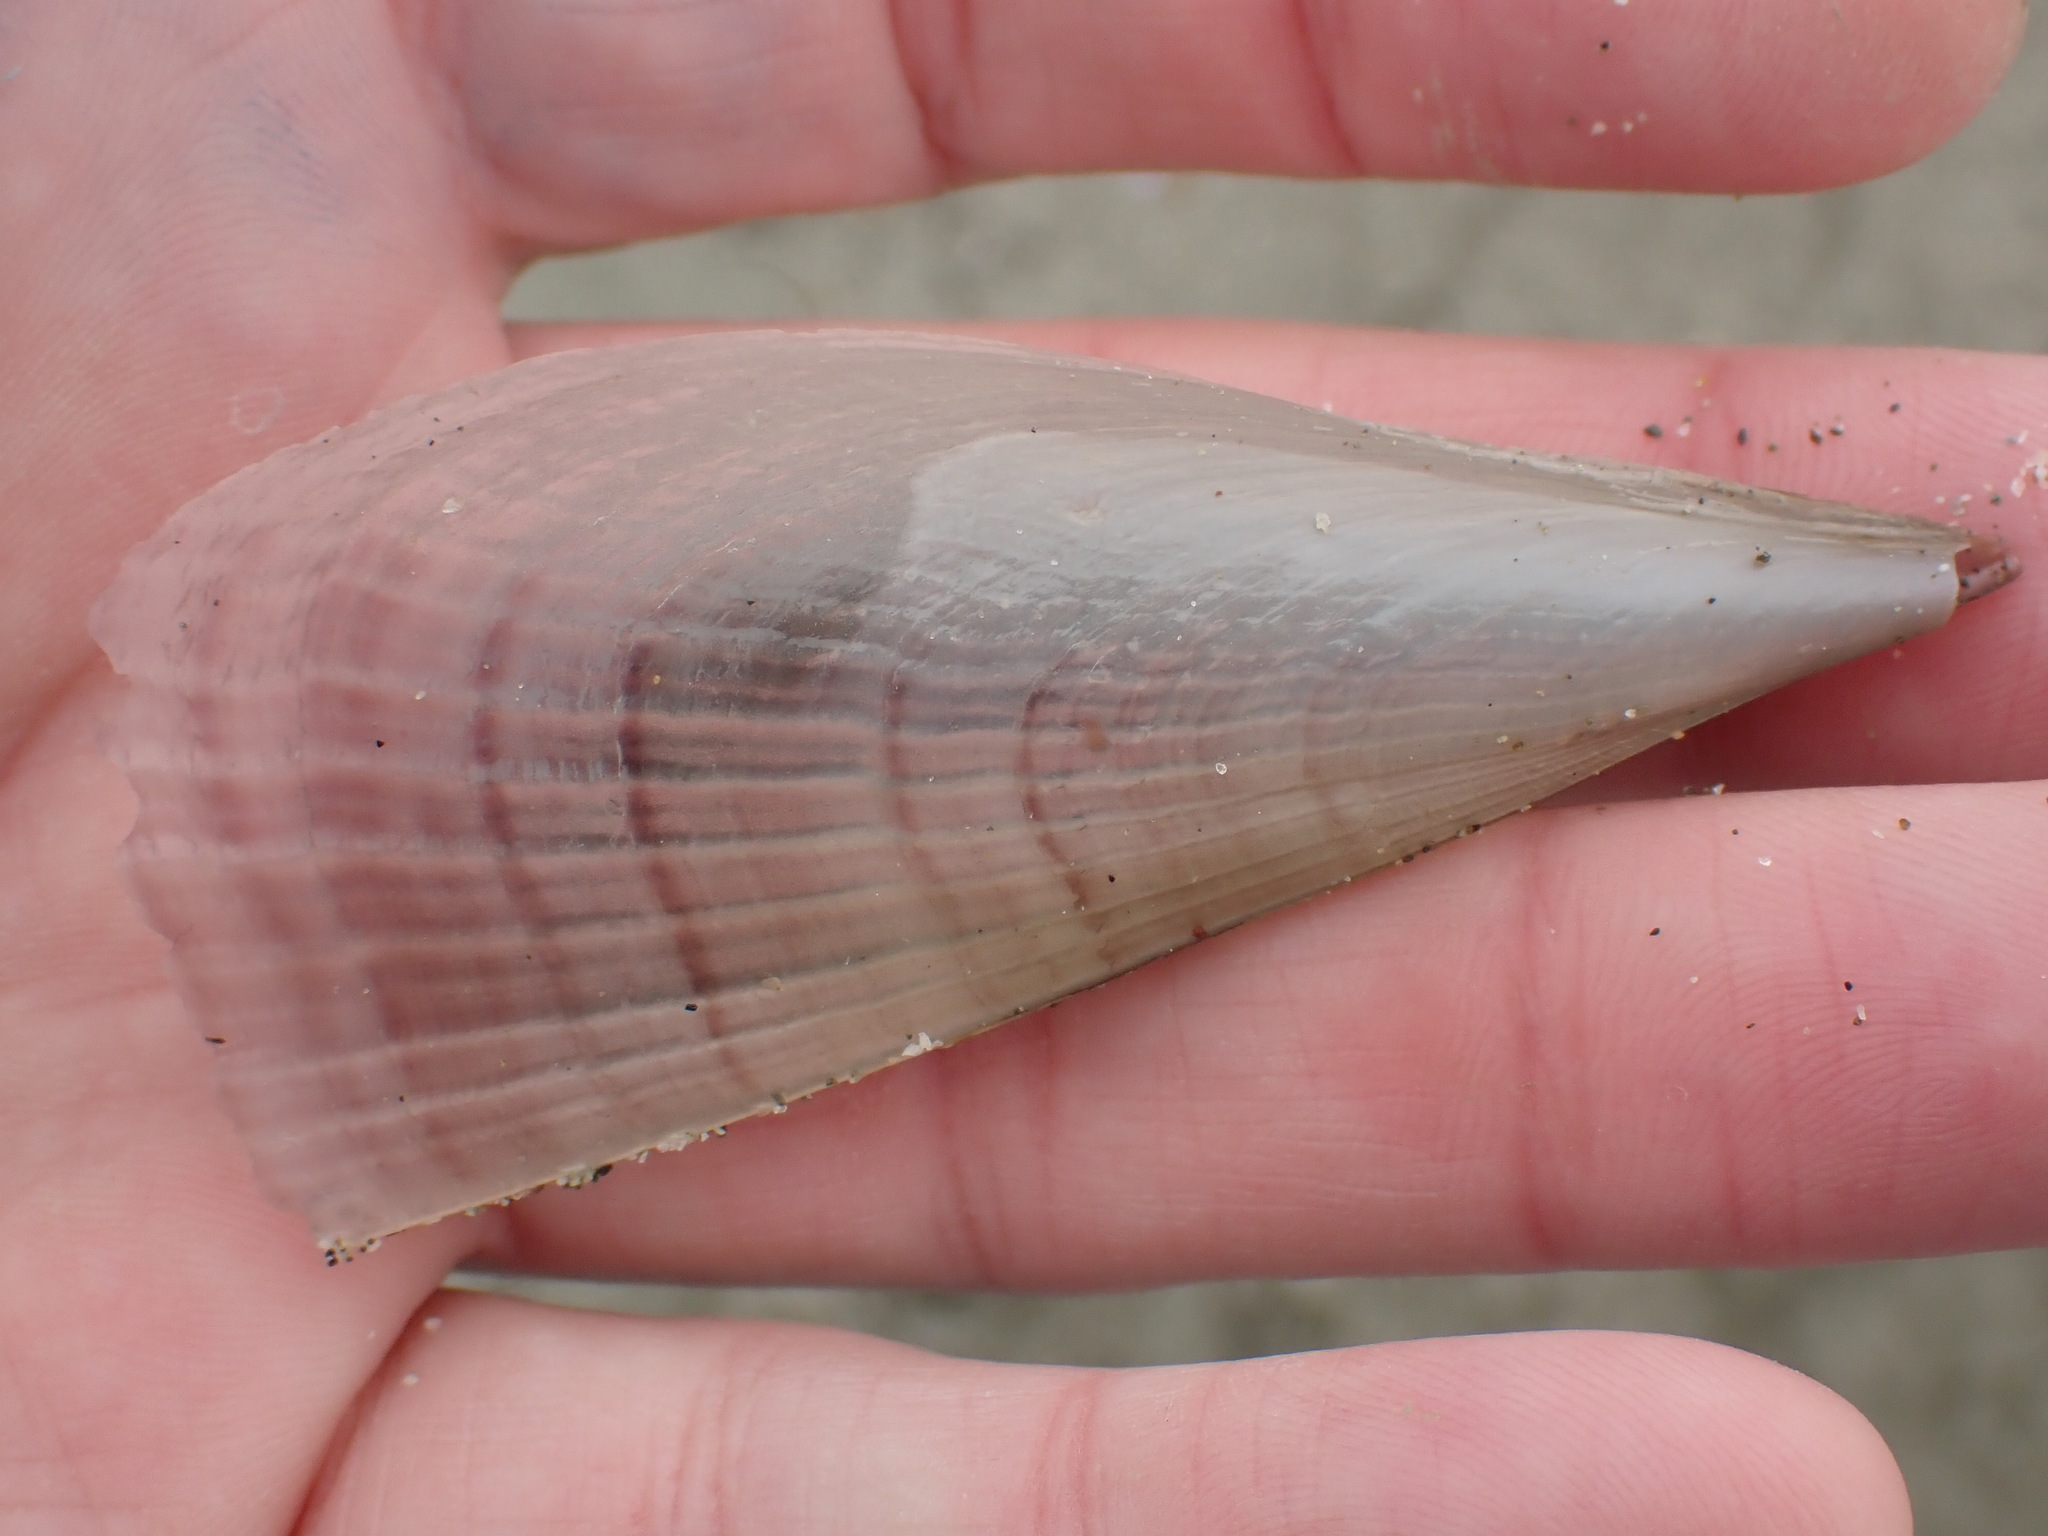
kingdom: Animalia
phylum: Mollusca
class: Bivalvia
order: Ostreida
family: Pinnidae
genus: Atrina
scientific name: Atrina zelandica
